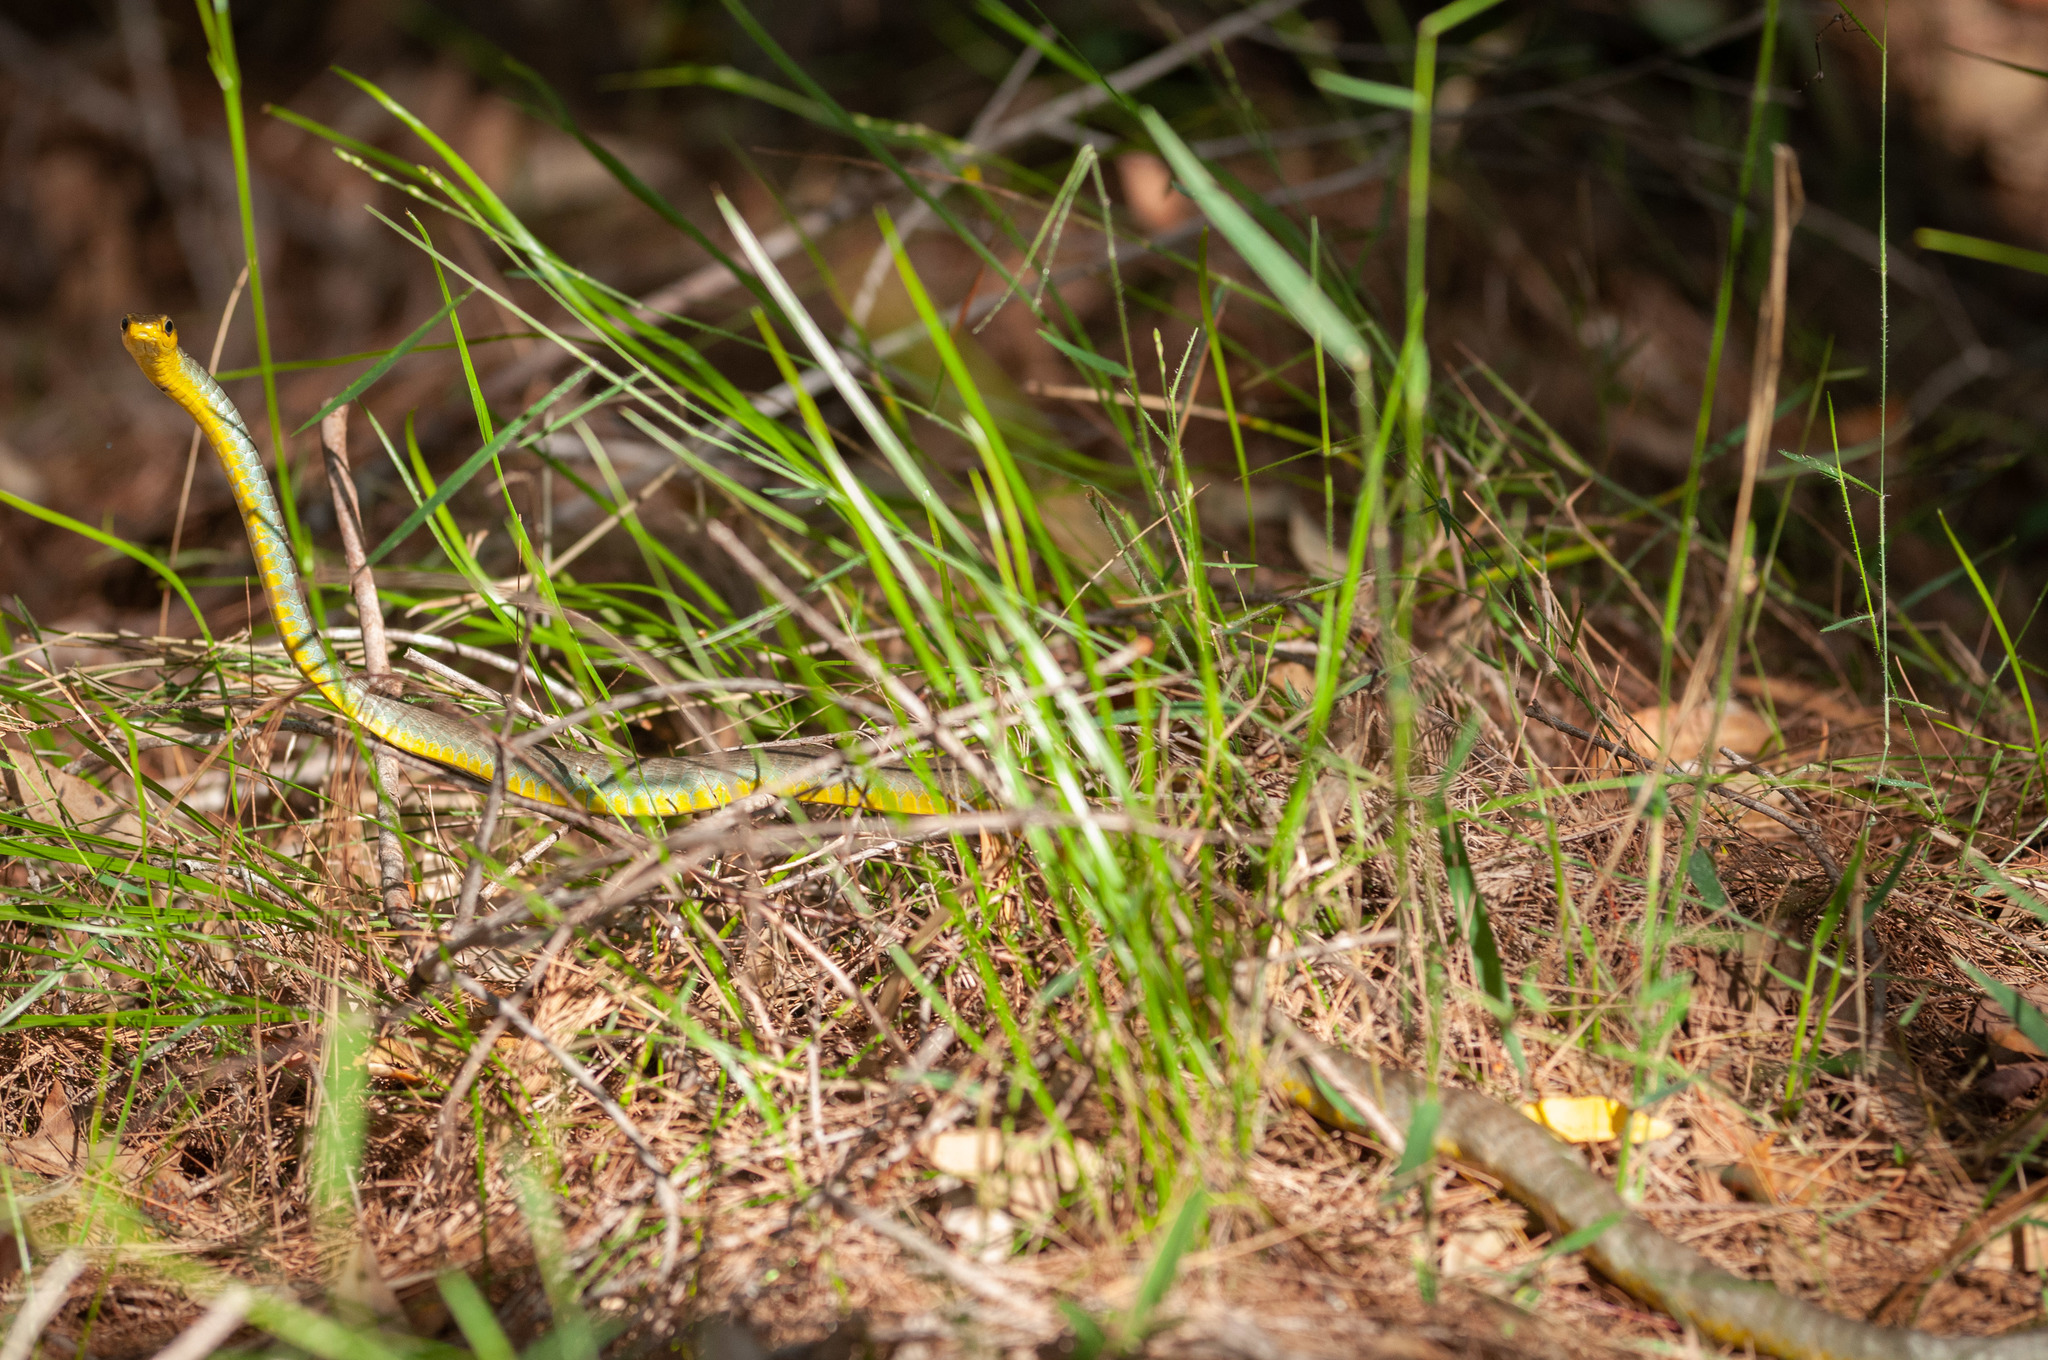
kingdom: Animalia
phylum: Chordata
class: Squamata
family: Colubridae
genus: Dendrelaphis
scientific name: Dendrelaphis punctulatus
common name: Common tree snake
